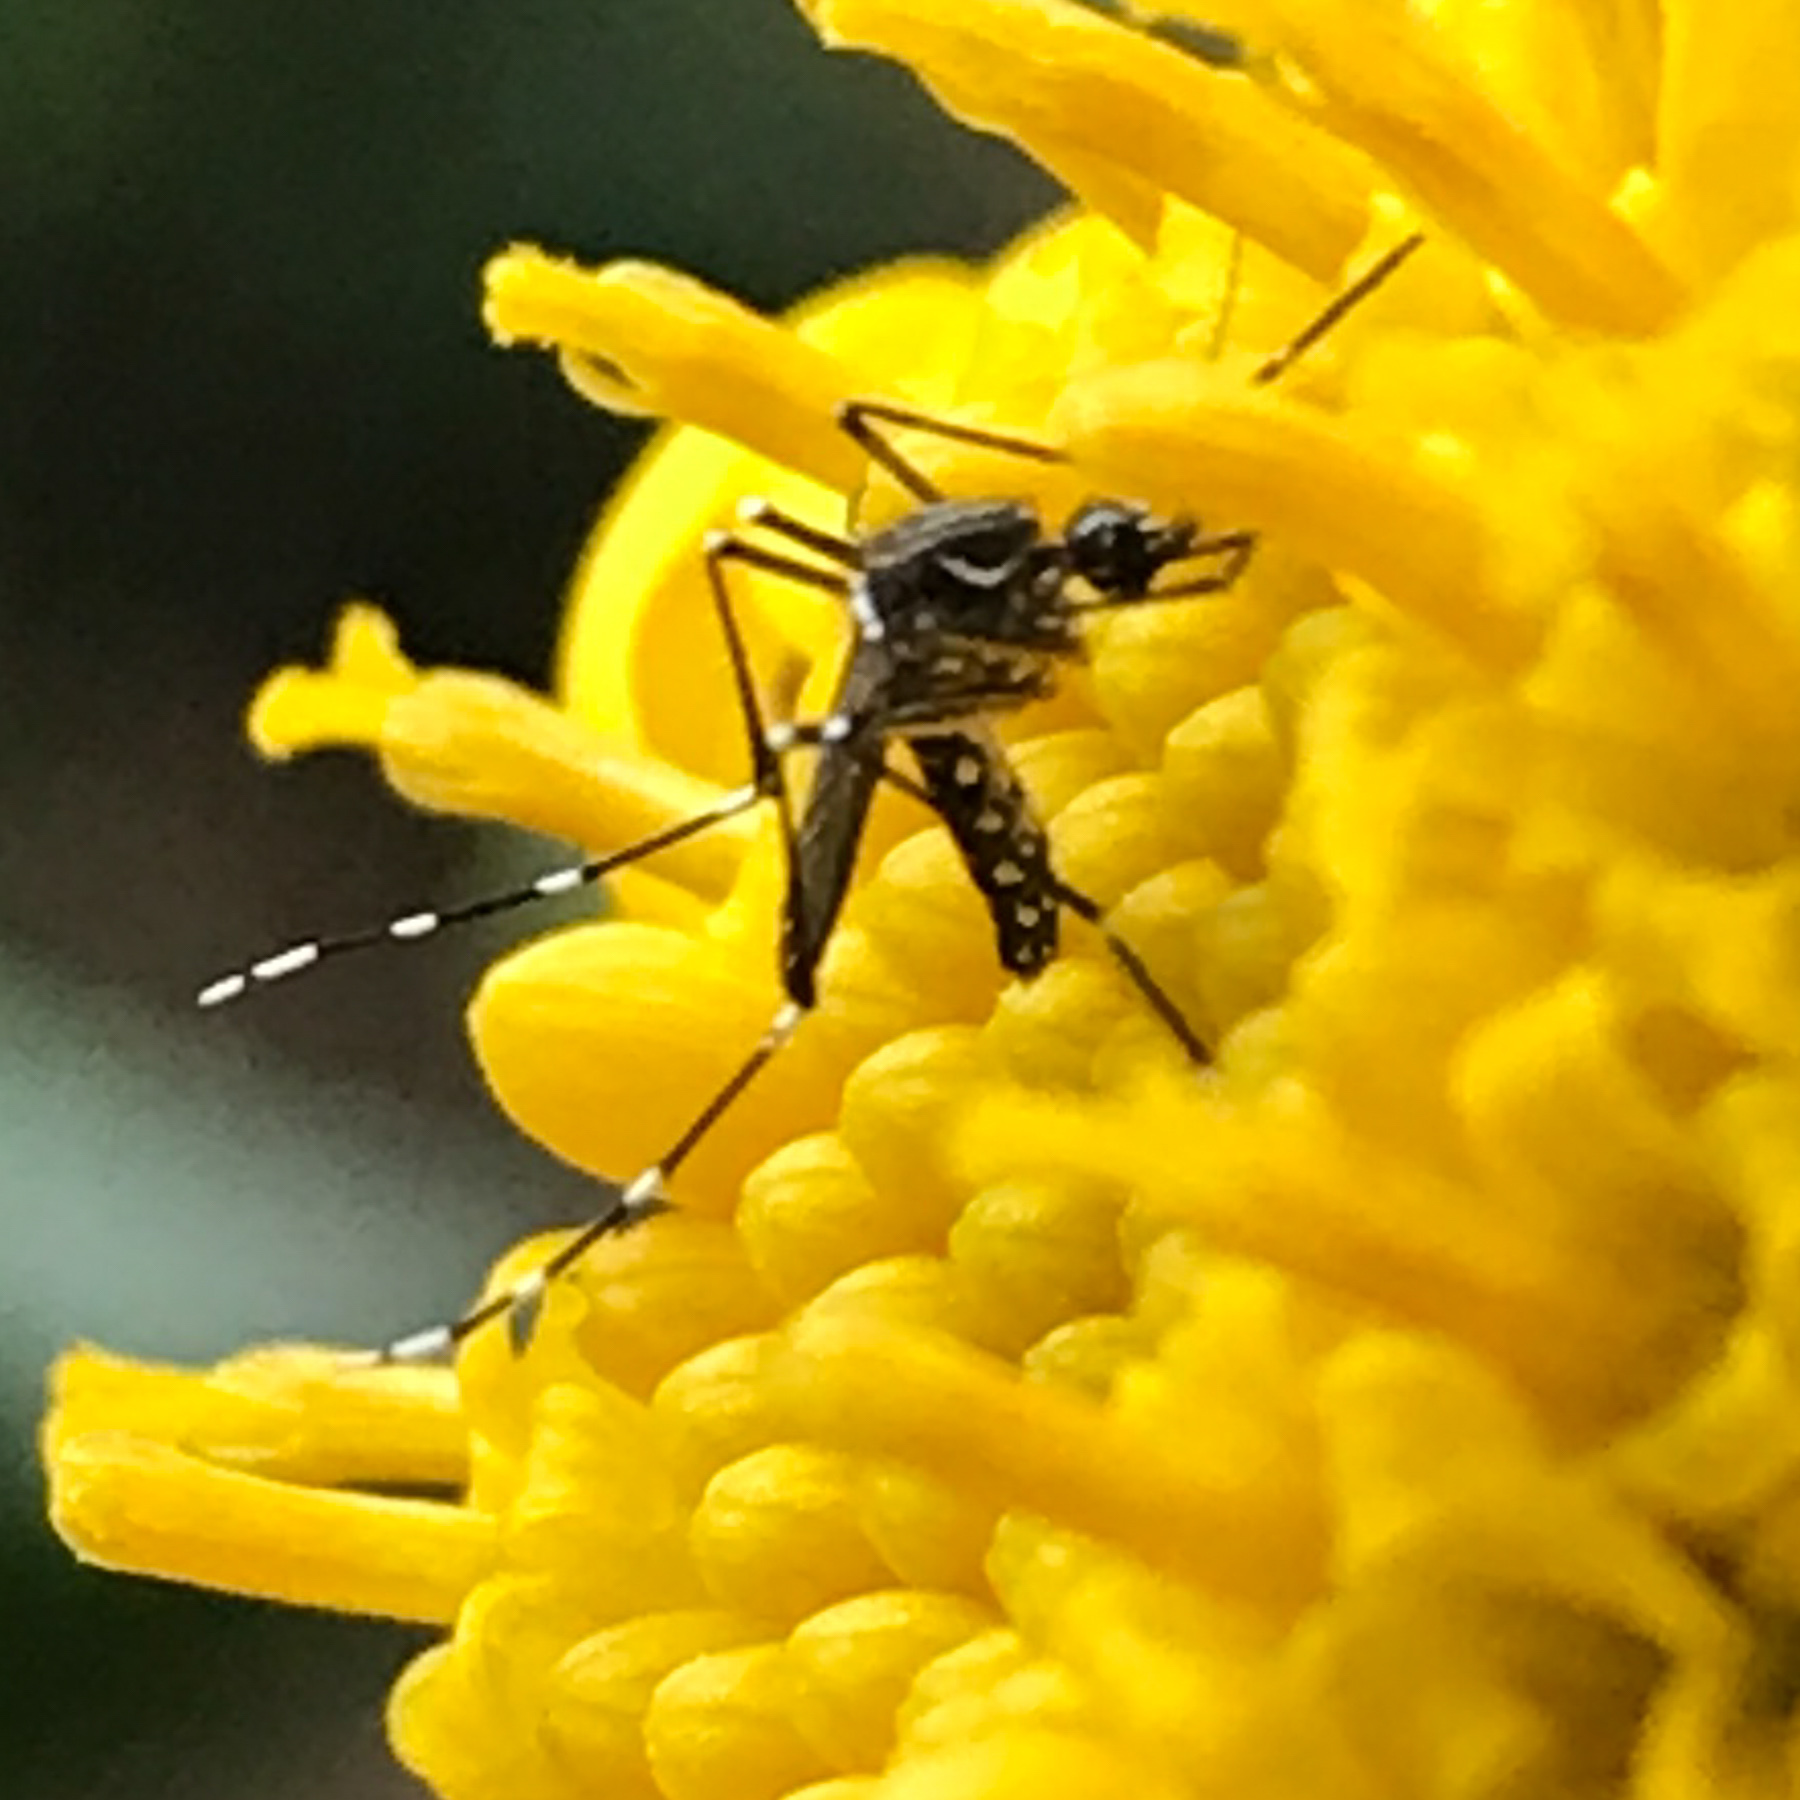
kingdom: Animalia
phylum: Arthropoda
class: Insecta
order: Diptera
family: Culicidae
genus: Aedes
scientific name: Aedes aegypti
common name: Yellow fever mosquito
